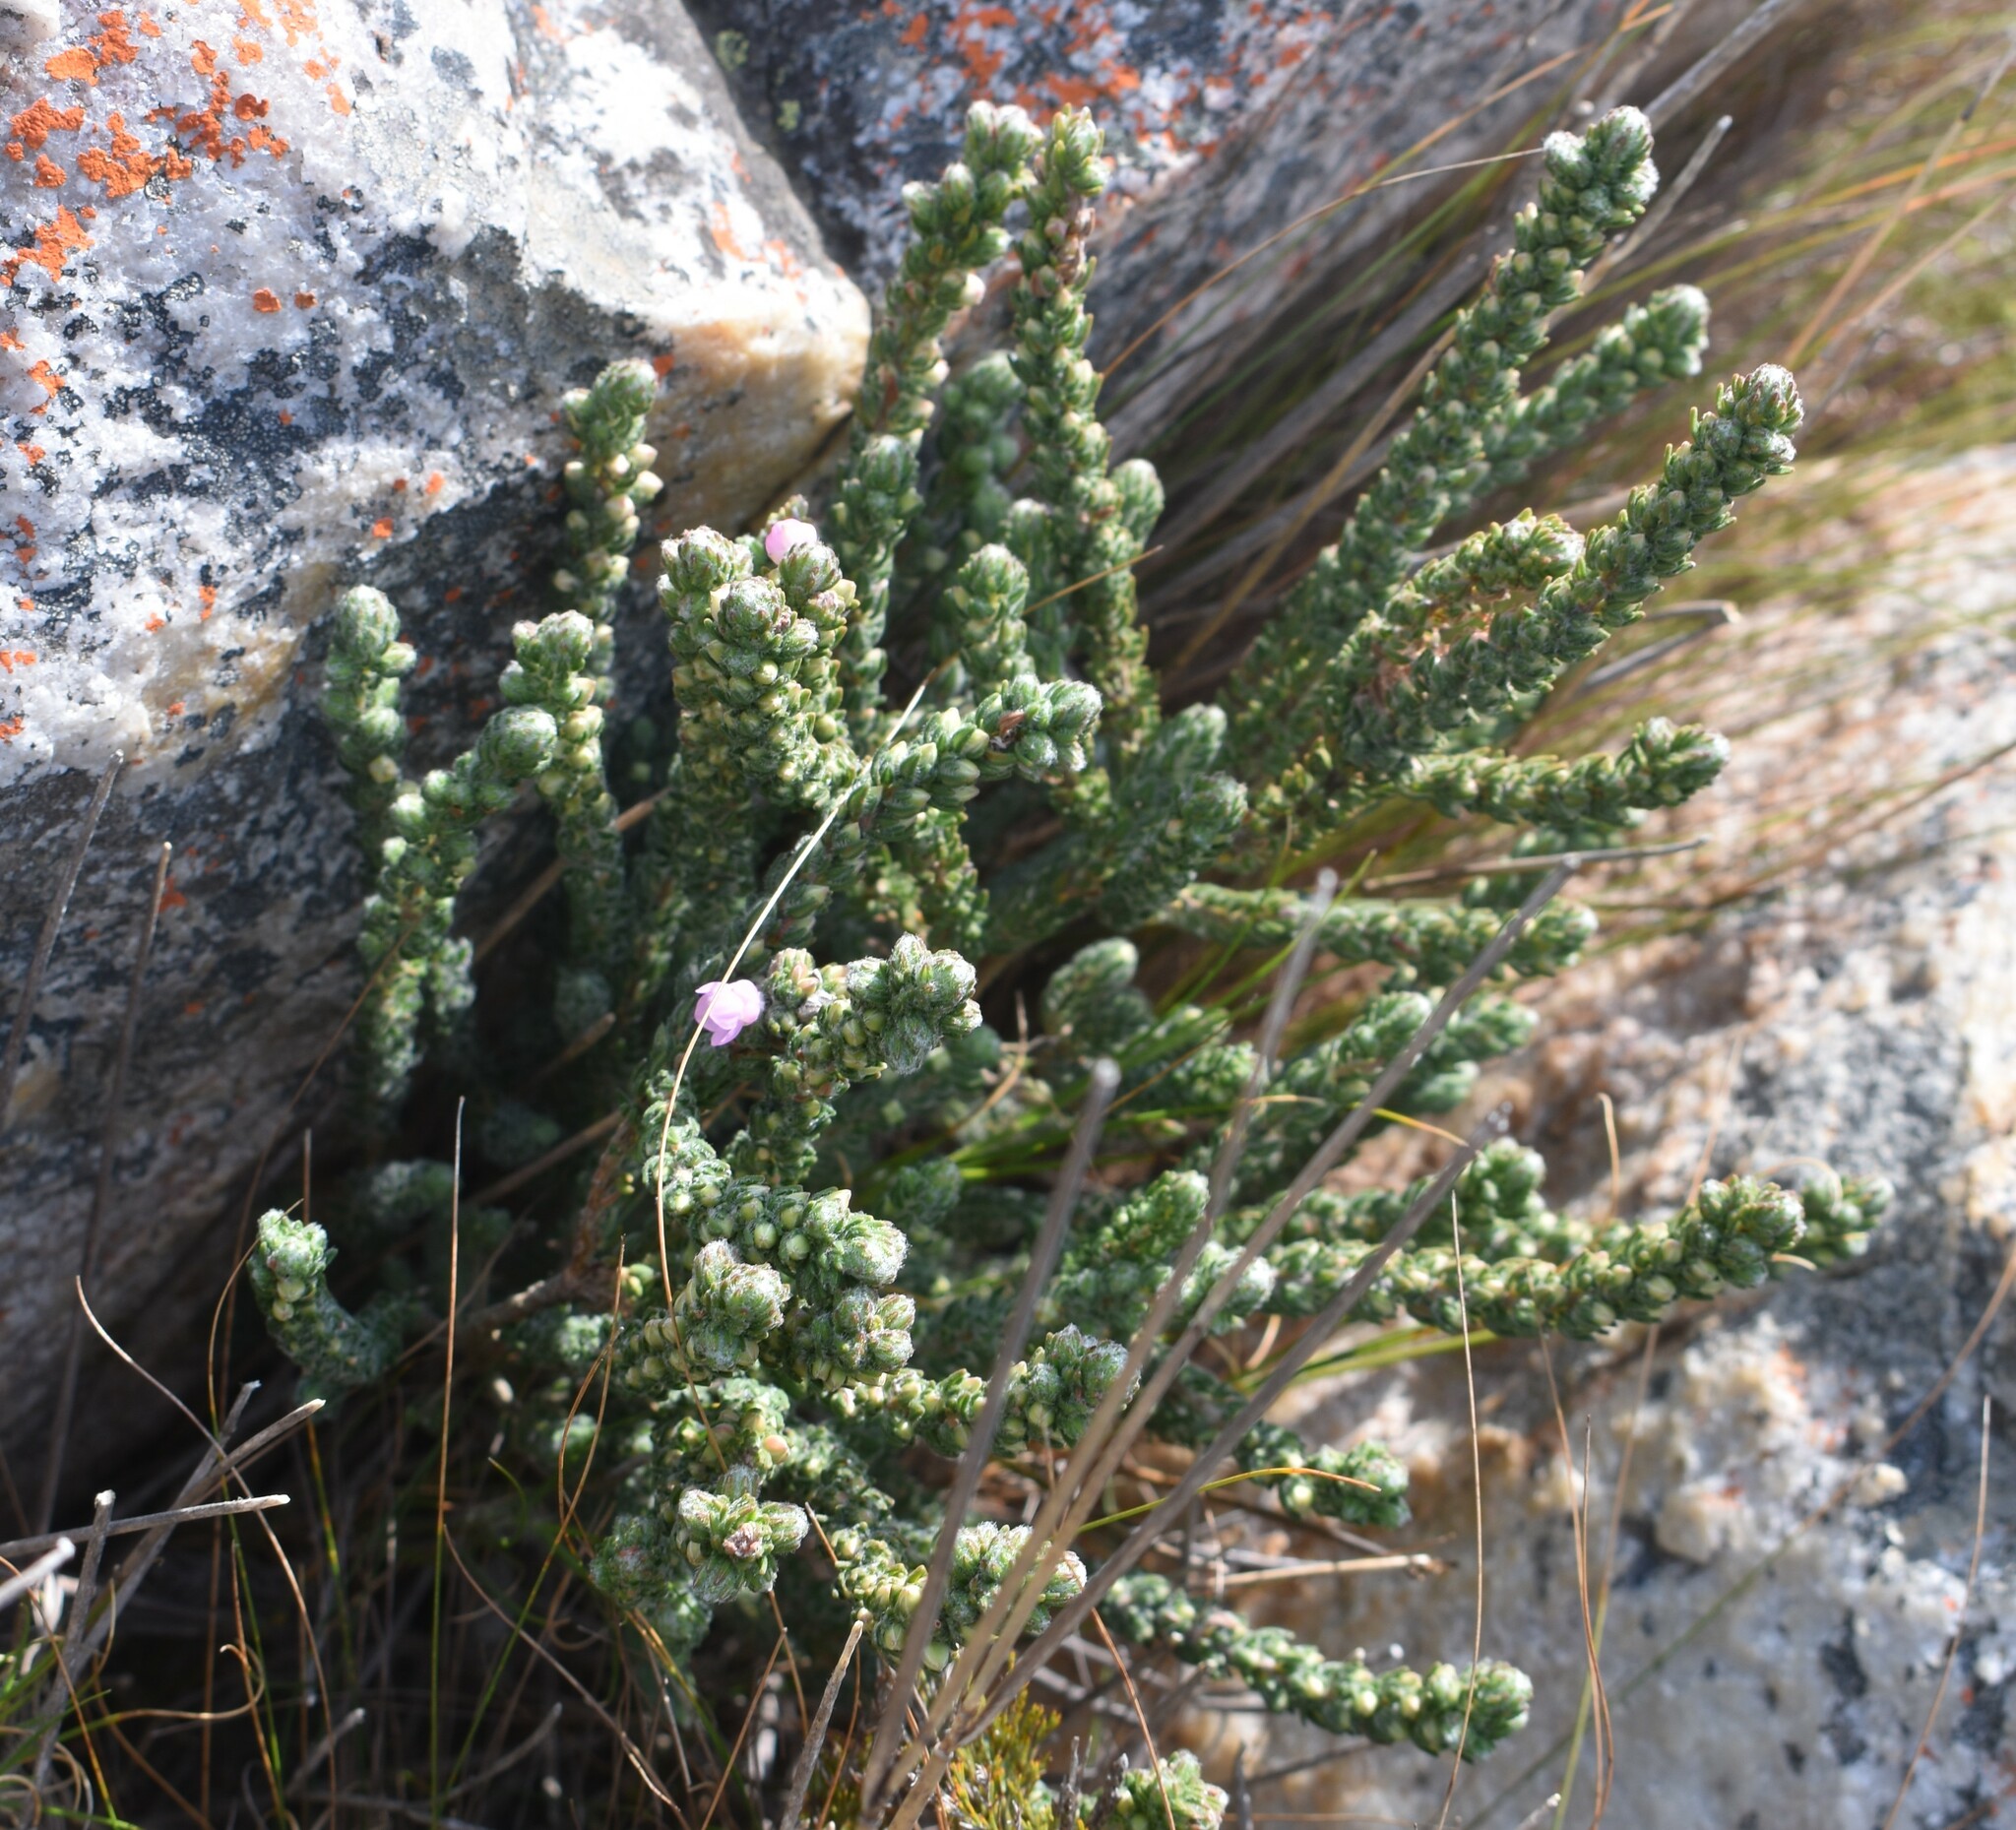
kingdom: Plantae
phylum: Tracheophyta
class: Magnoliopsida
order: Ericales
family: Ericaceae
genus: Erica
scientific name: Erica nervata
